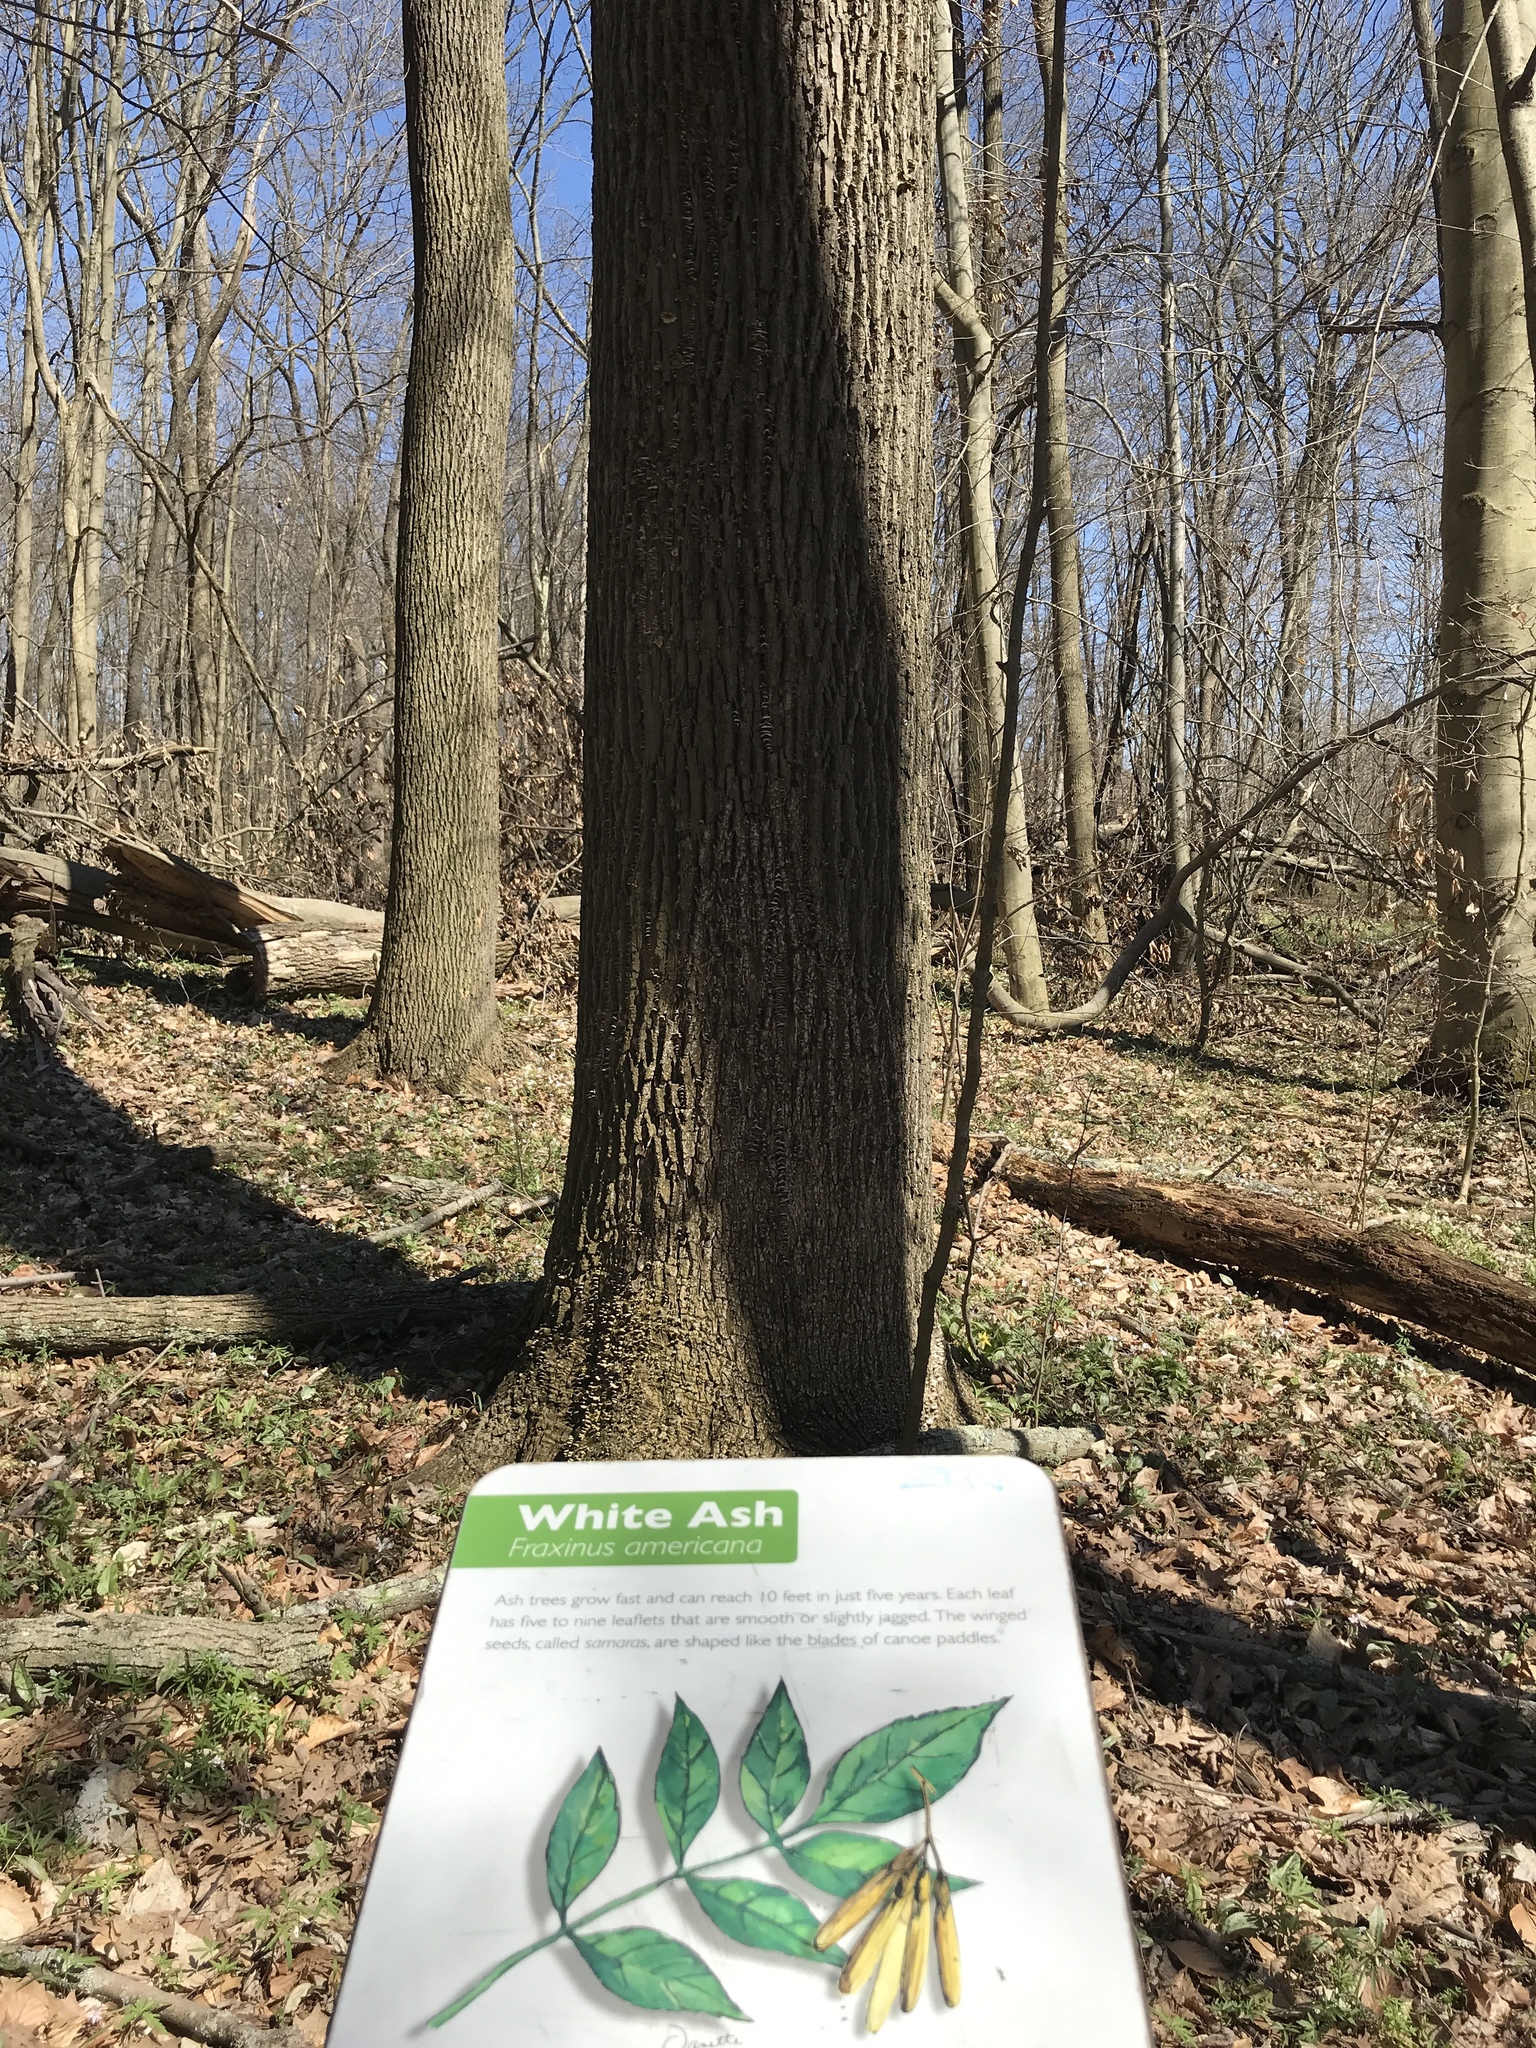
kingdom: Plantae
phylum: Tracheophyta
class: Magnoliopsida
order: Lamiales
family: Oleaceae
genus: Fraxinus
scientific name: Fraxinus americana
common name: White ash
